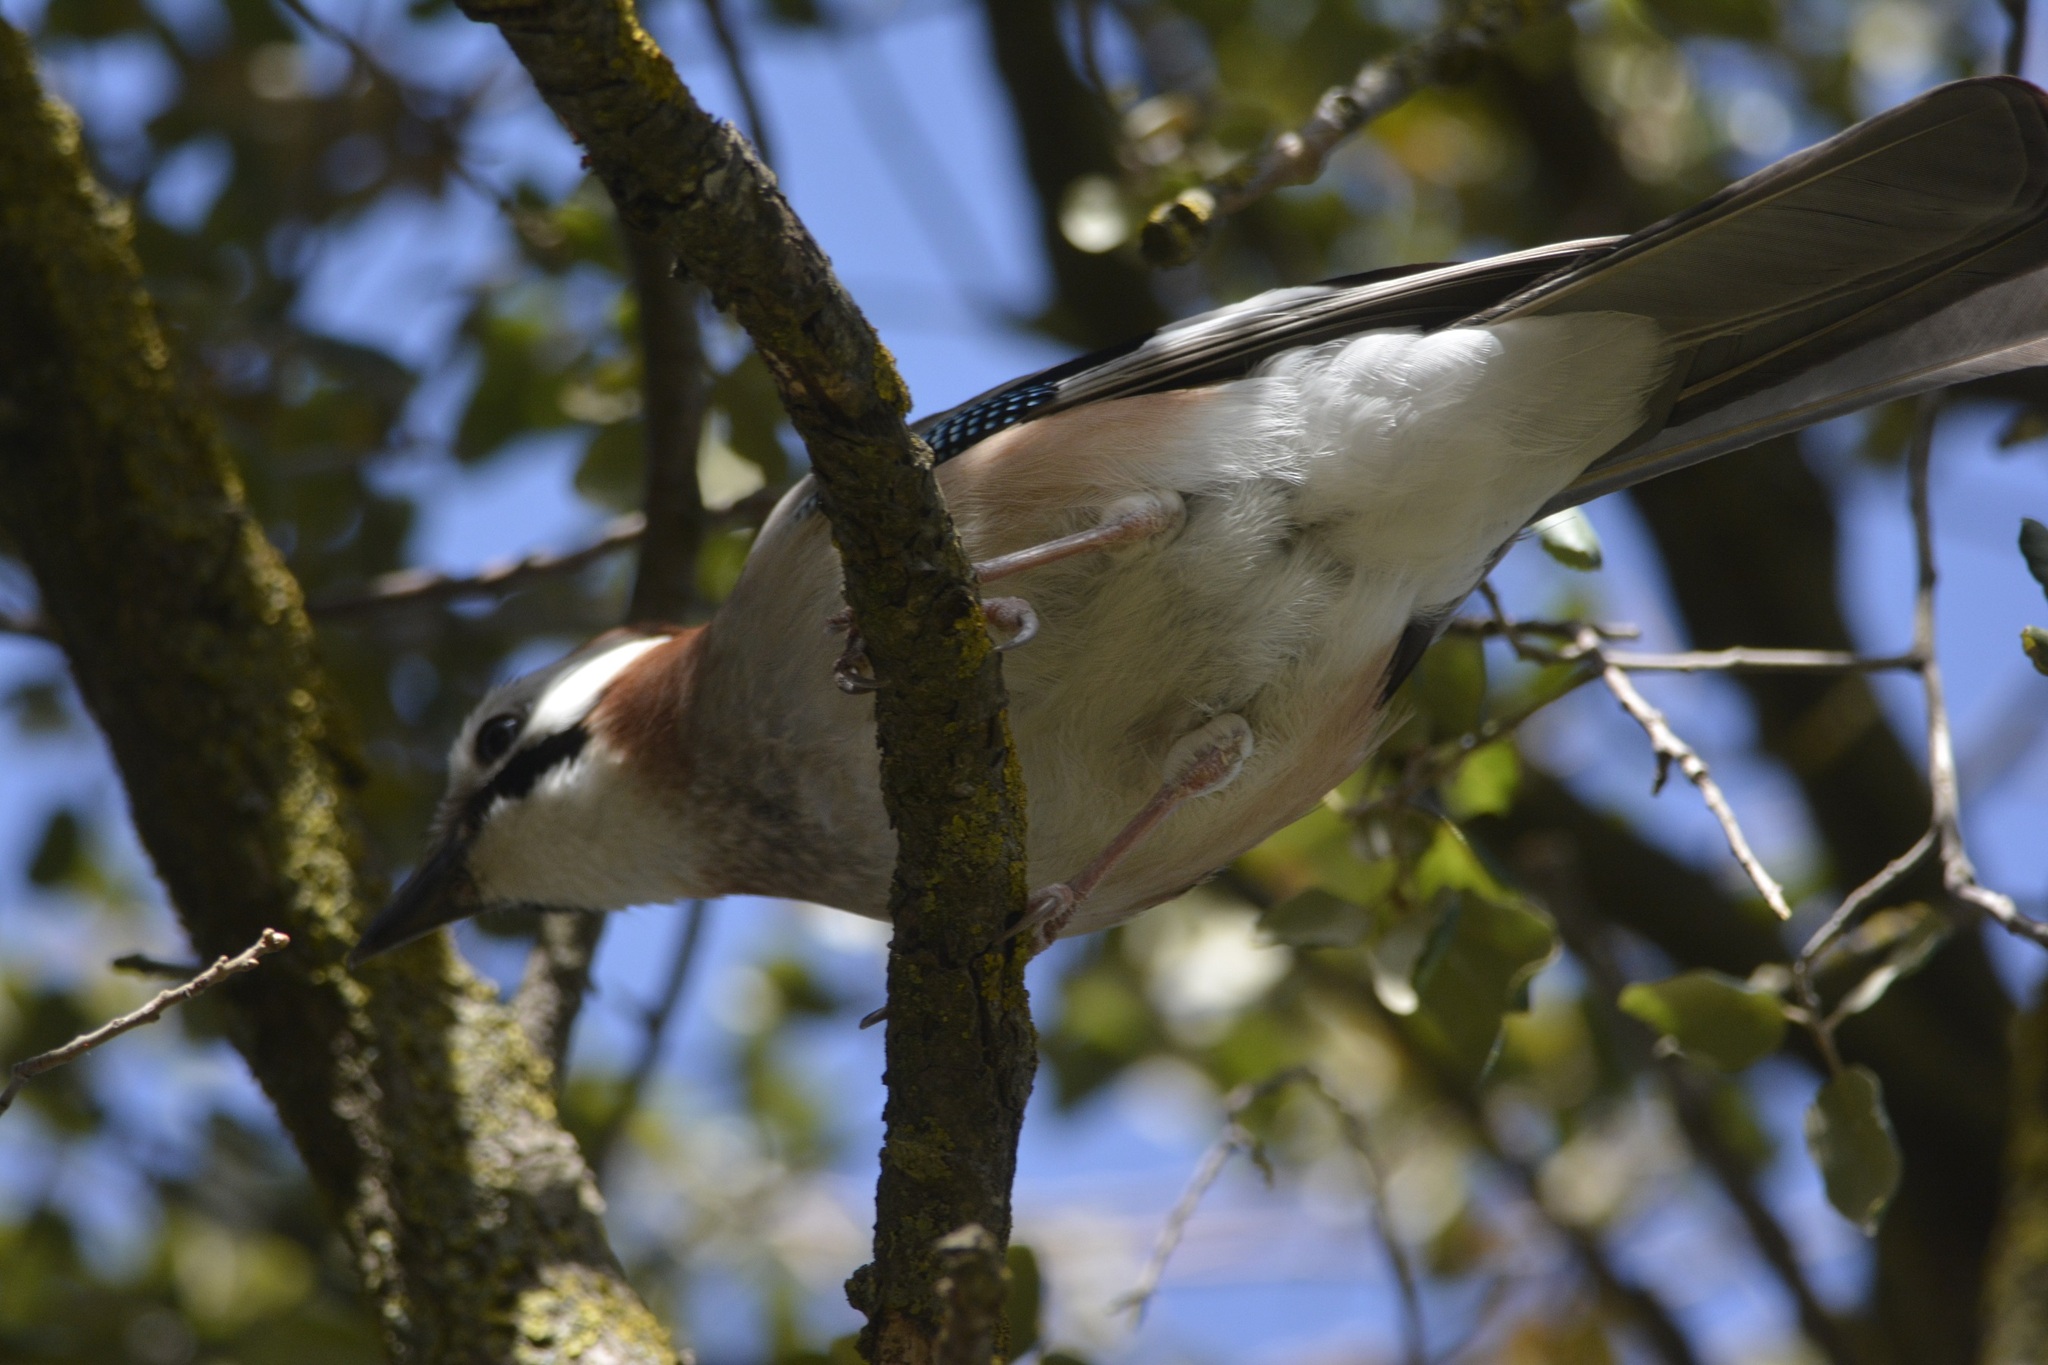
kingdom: Animalia
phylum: Chordata
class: Aves
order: Passeriformes
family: Corvidae
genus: Garrulus
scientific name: Garrulus glandarius
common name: Eurasian jay
